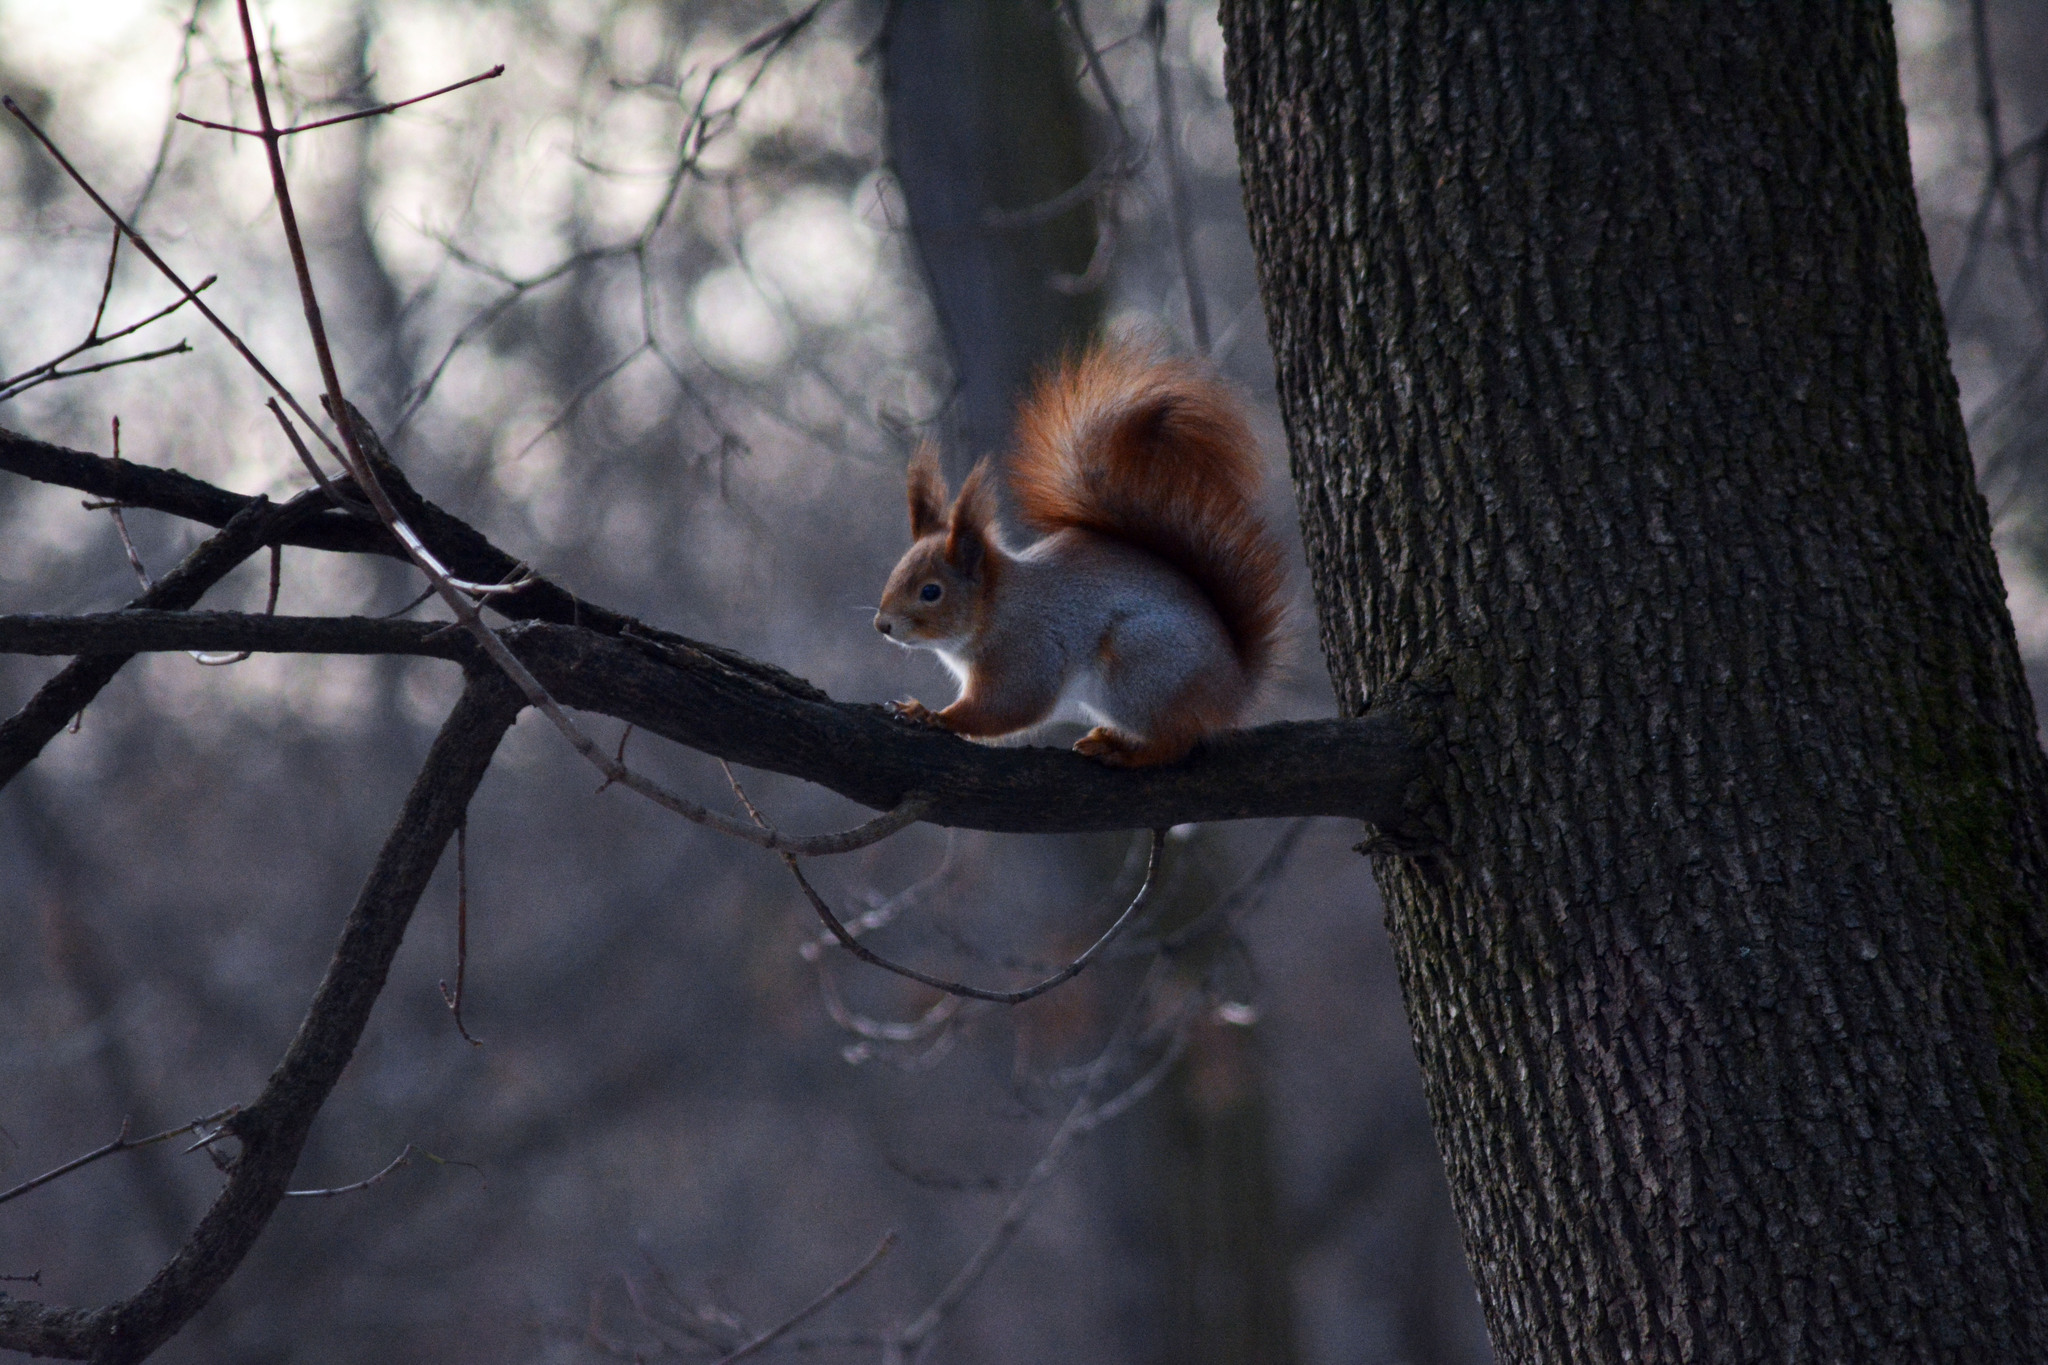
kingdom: Animalia
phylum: Chordata
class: Mammalia
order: Rodentia
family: Sciuridae
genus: Sciurus
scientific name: Sciurus vulgaris
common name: Eurasian red squirrel
